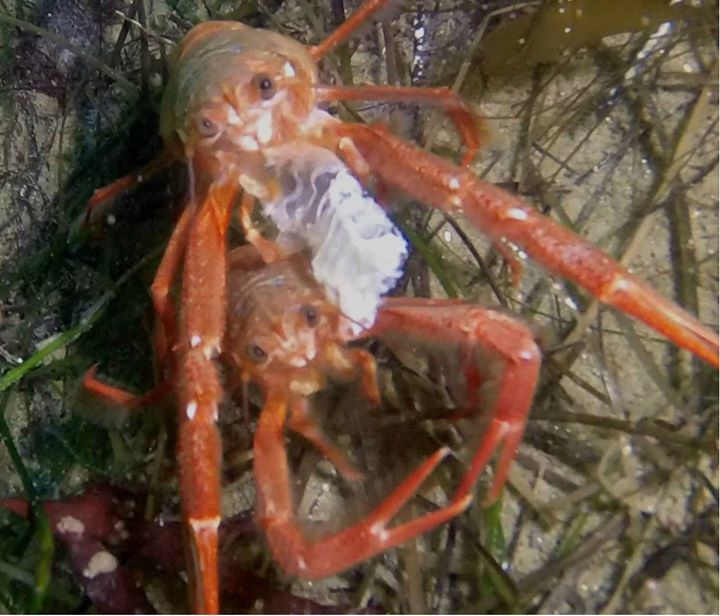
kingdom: Animalia
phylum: Arthropoda
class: Malacostraca
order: Decapoda
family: Munididae
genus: Grimothea
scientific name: Grimothea planipes
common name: Pelagic red crab
